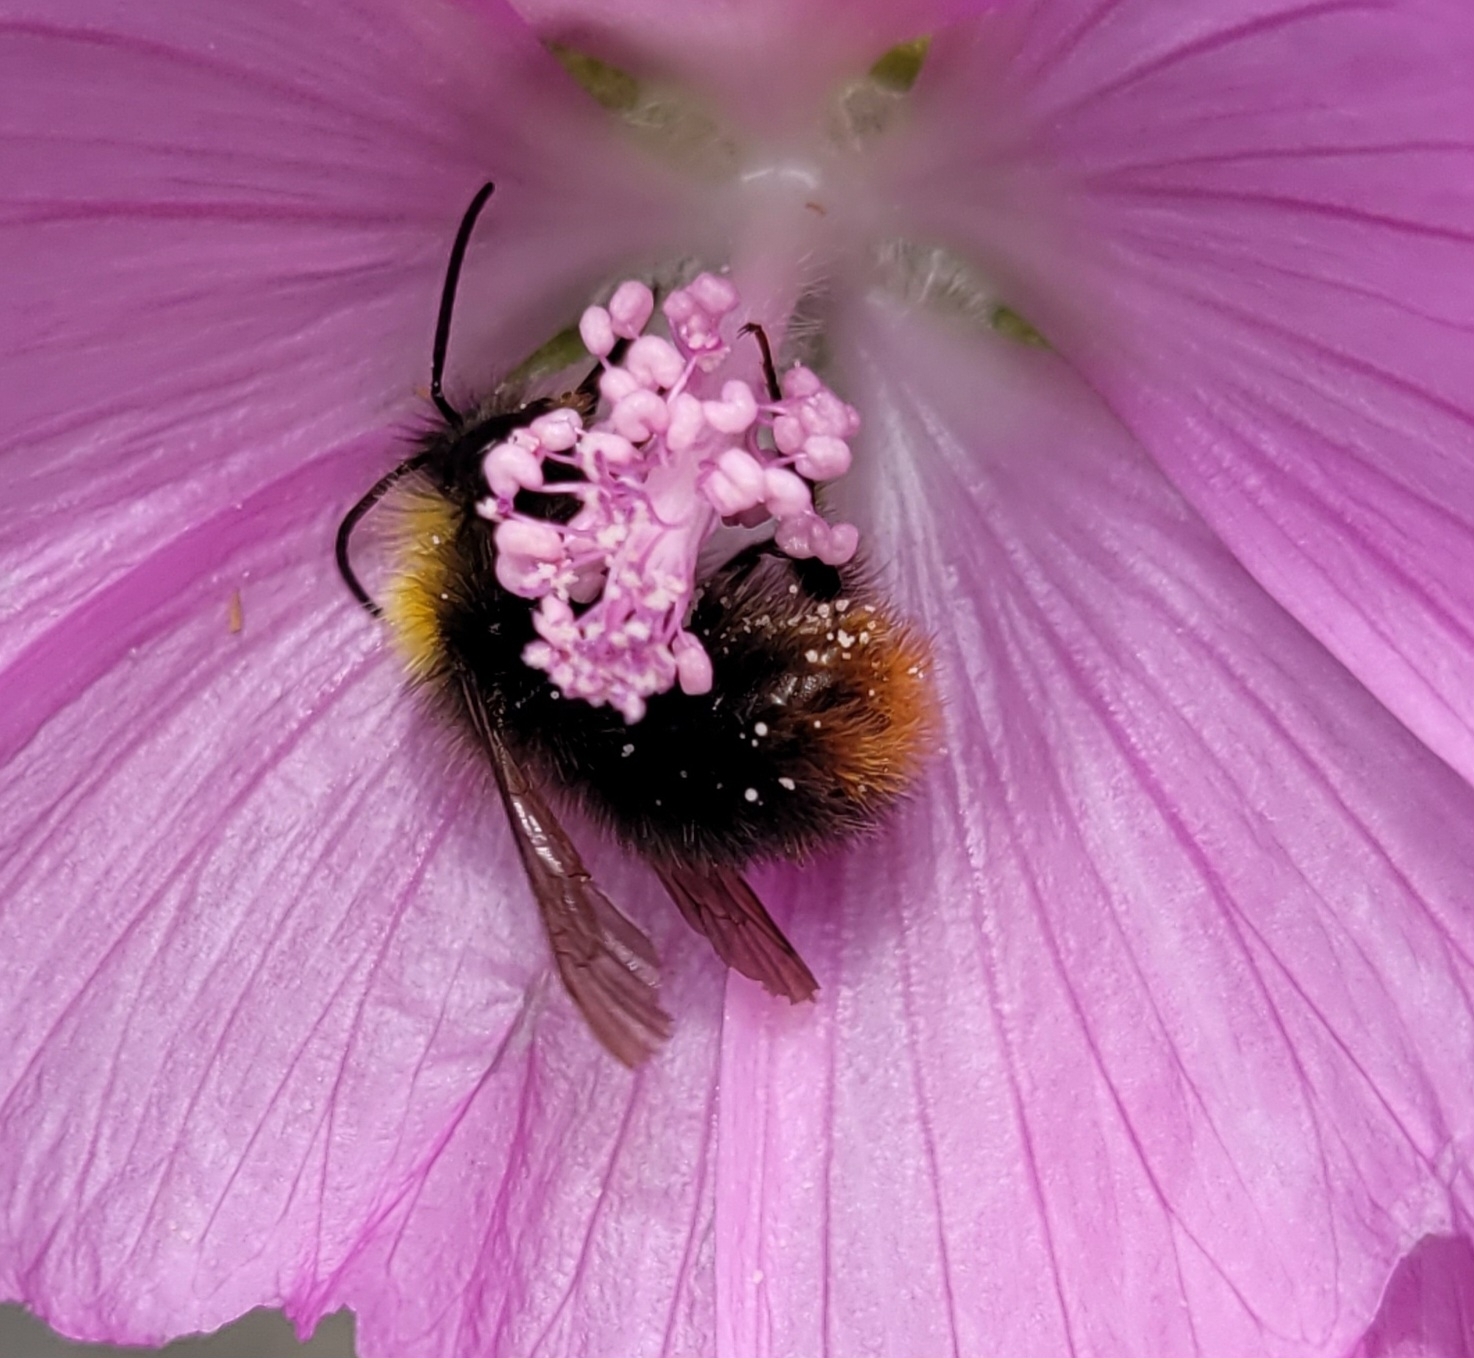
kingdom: Animalia
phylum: Arthropoda
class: Insecta
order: Hymenoptera
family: Apidae
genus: Bombus
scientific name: Bombus pratorum
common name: Early humble-bee
